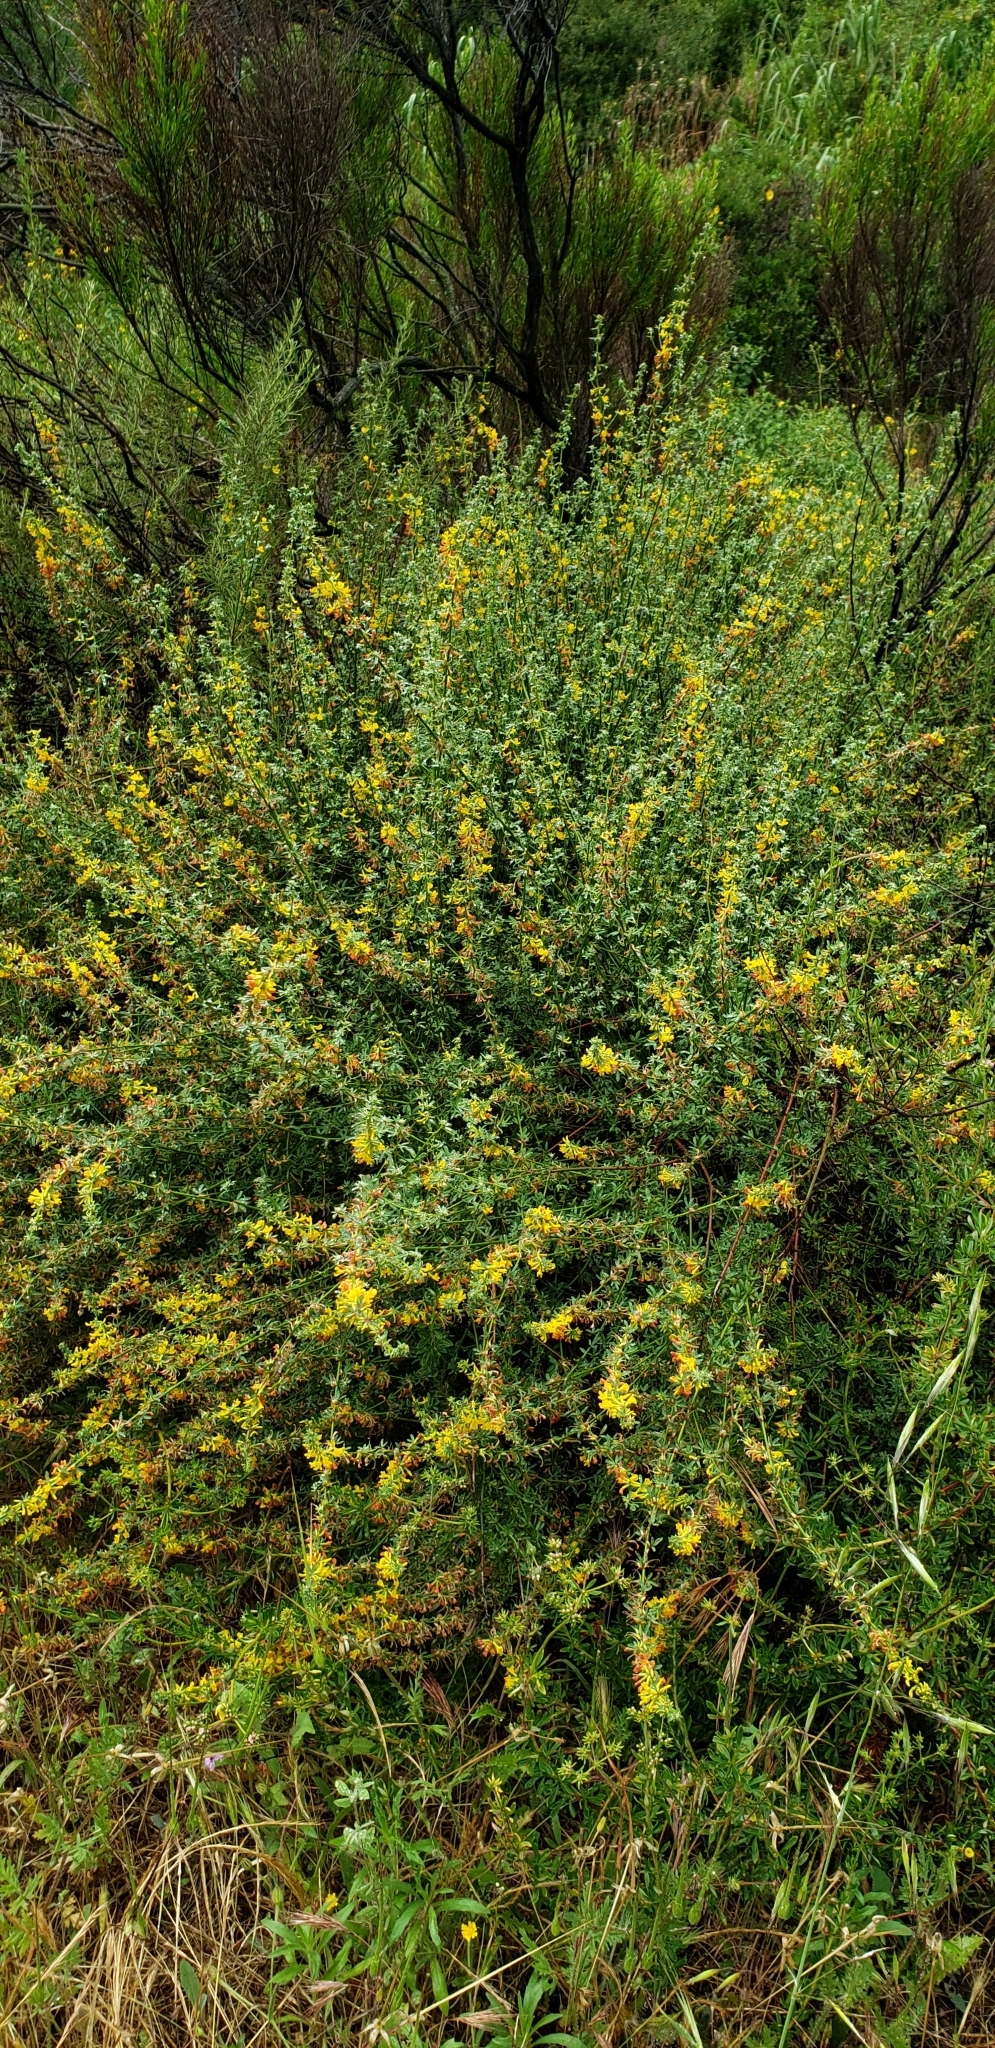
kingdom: Plantae
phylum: Tracheophyta
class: Magnoliopsida
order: Fabales
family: Fabaceae
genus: Acmispon
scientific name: Acmispon glaber
